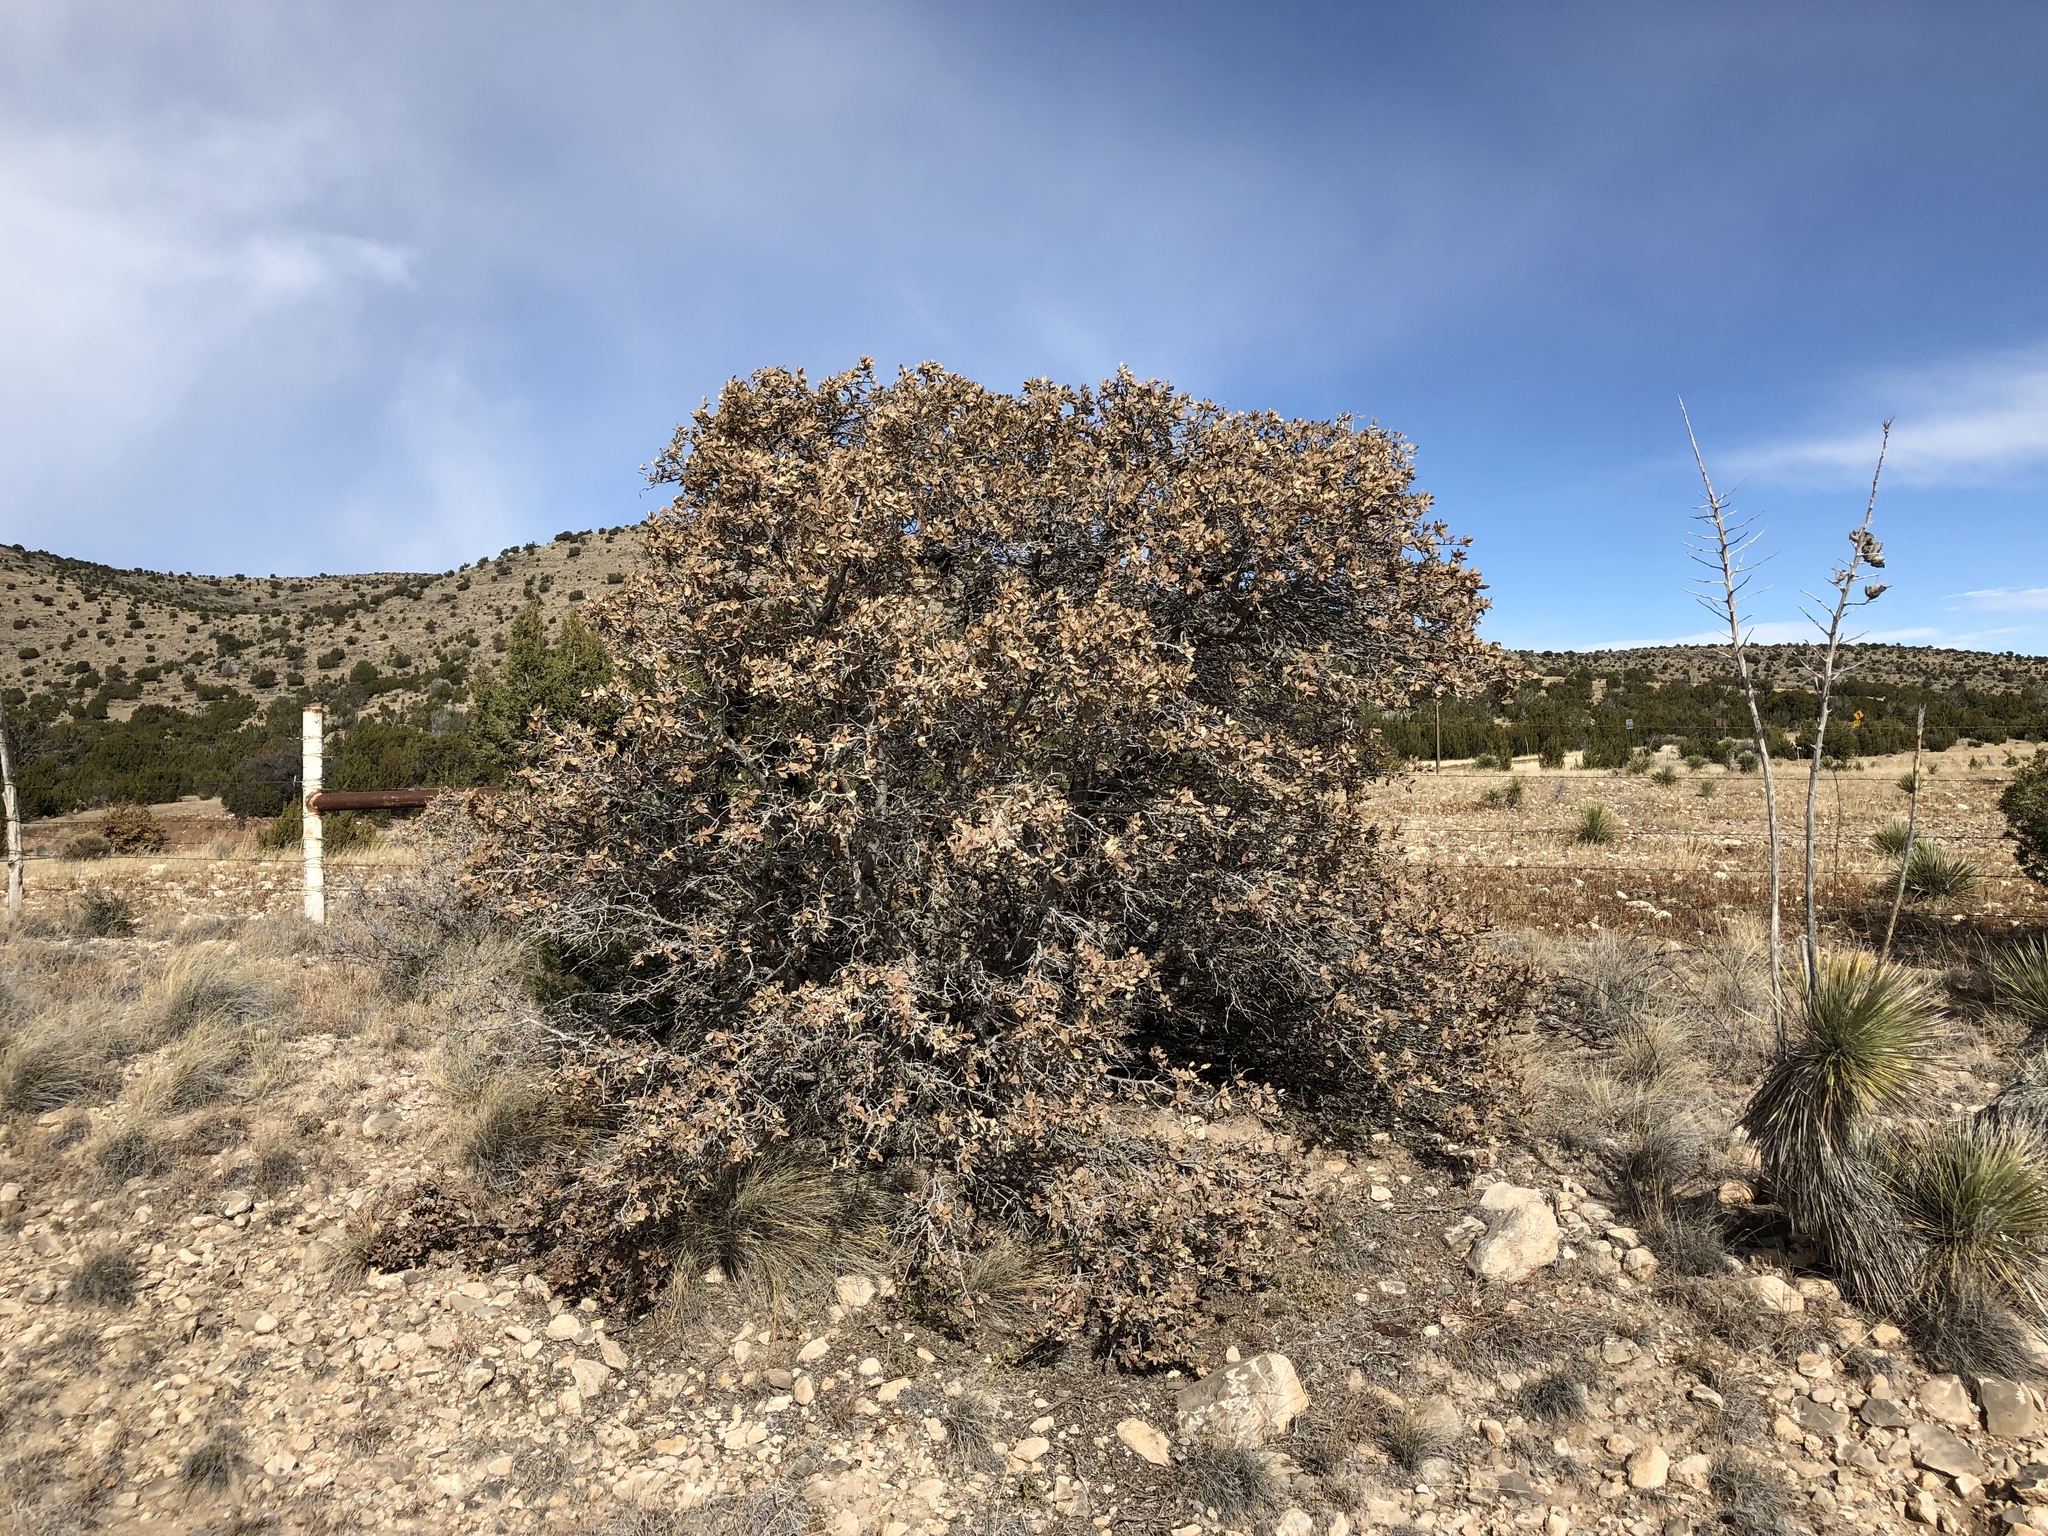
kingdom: Plantae
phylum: Tracheophyta
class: Magnoliopsida
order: Fagales
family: Fagaceae
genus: Quercus
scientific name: Quercus grisea
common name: Gray oak
